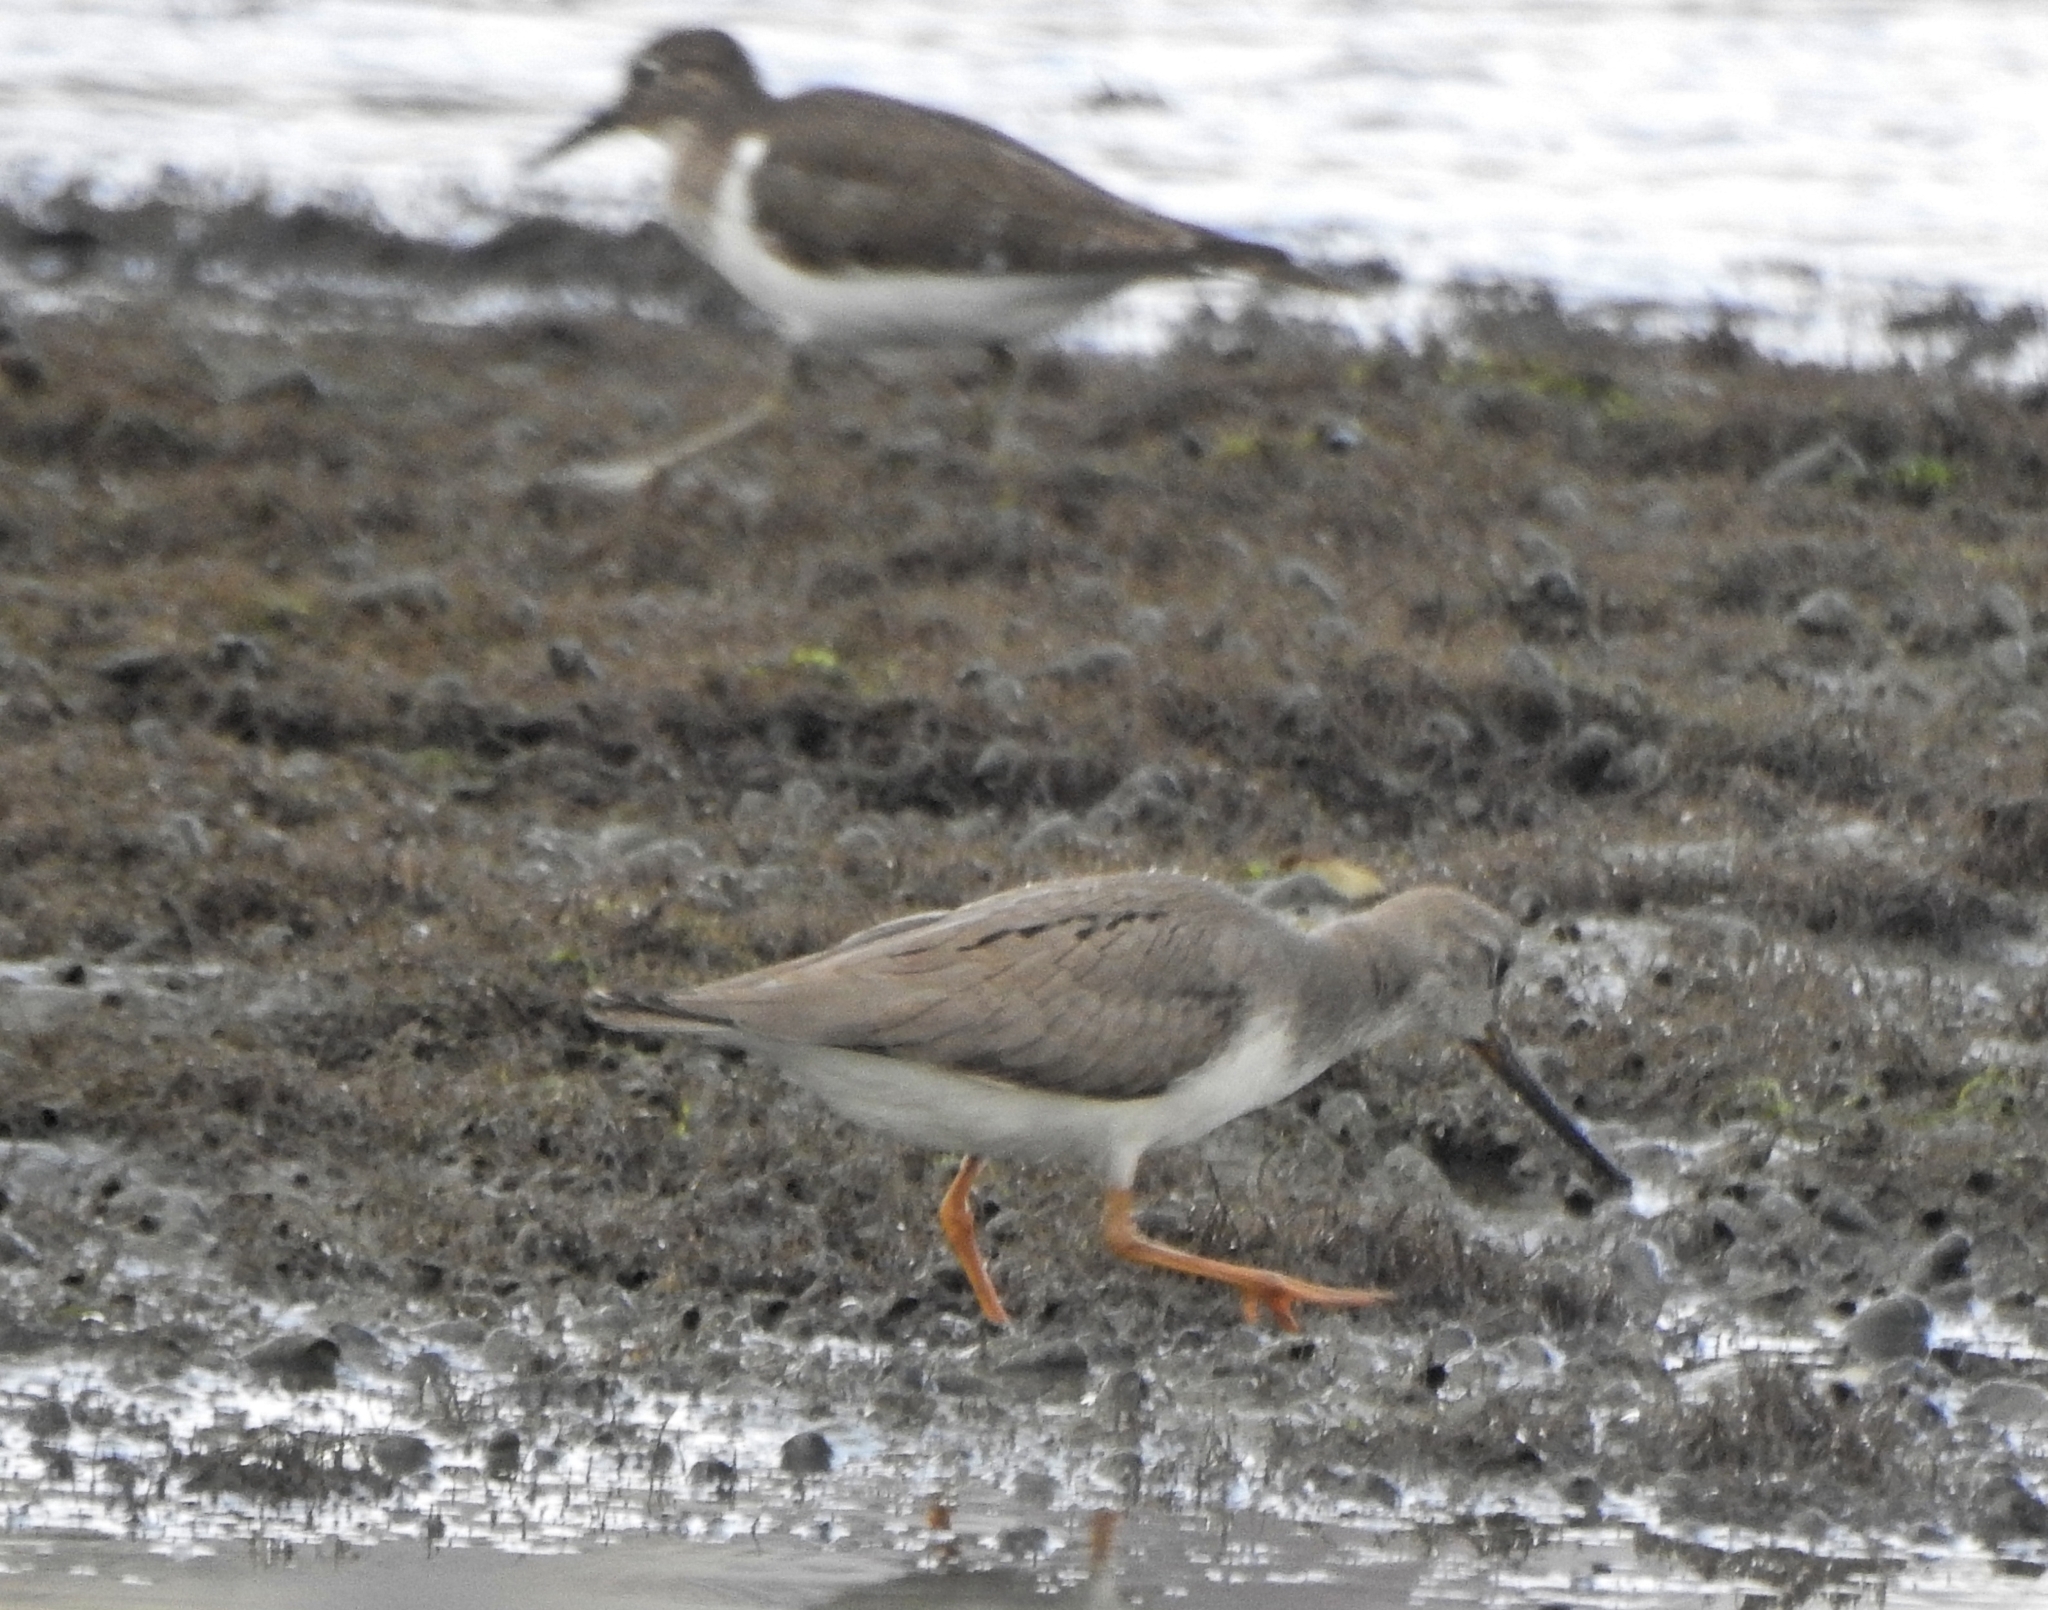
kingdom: Animalia
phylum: Chordata
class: Aves
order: Charadriiformes
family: Scolopacidae
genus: Actitis
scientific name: Actitis hypoleucos
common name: Common sandpiper
